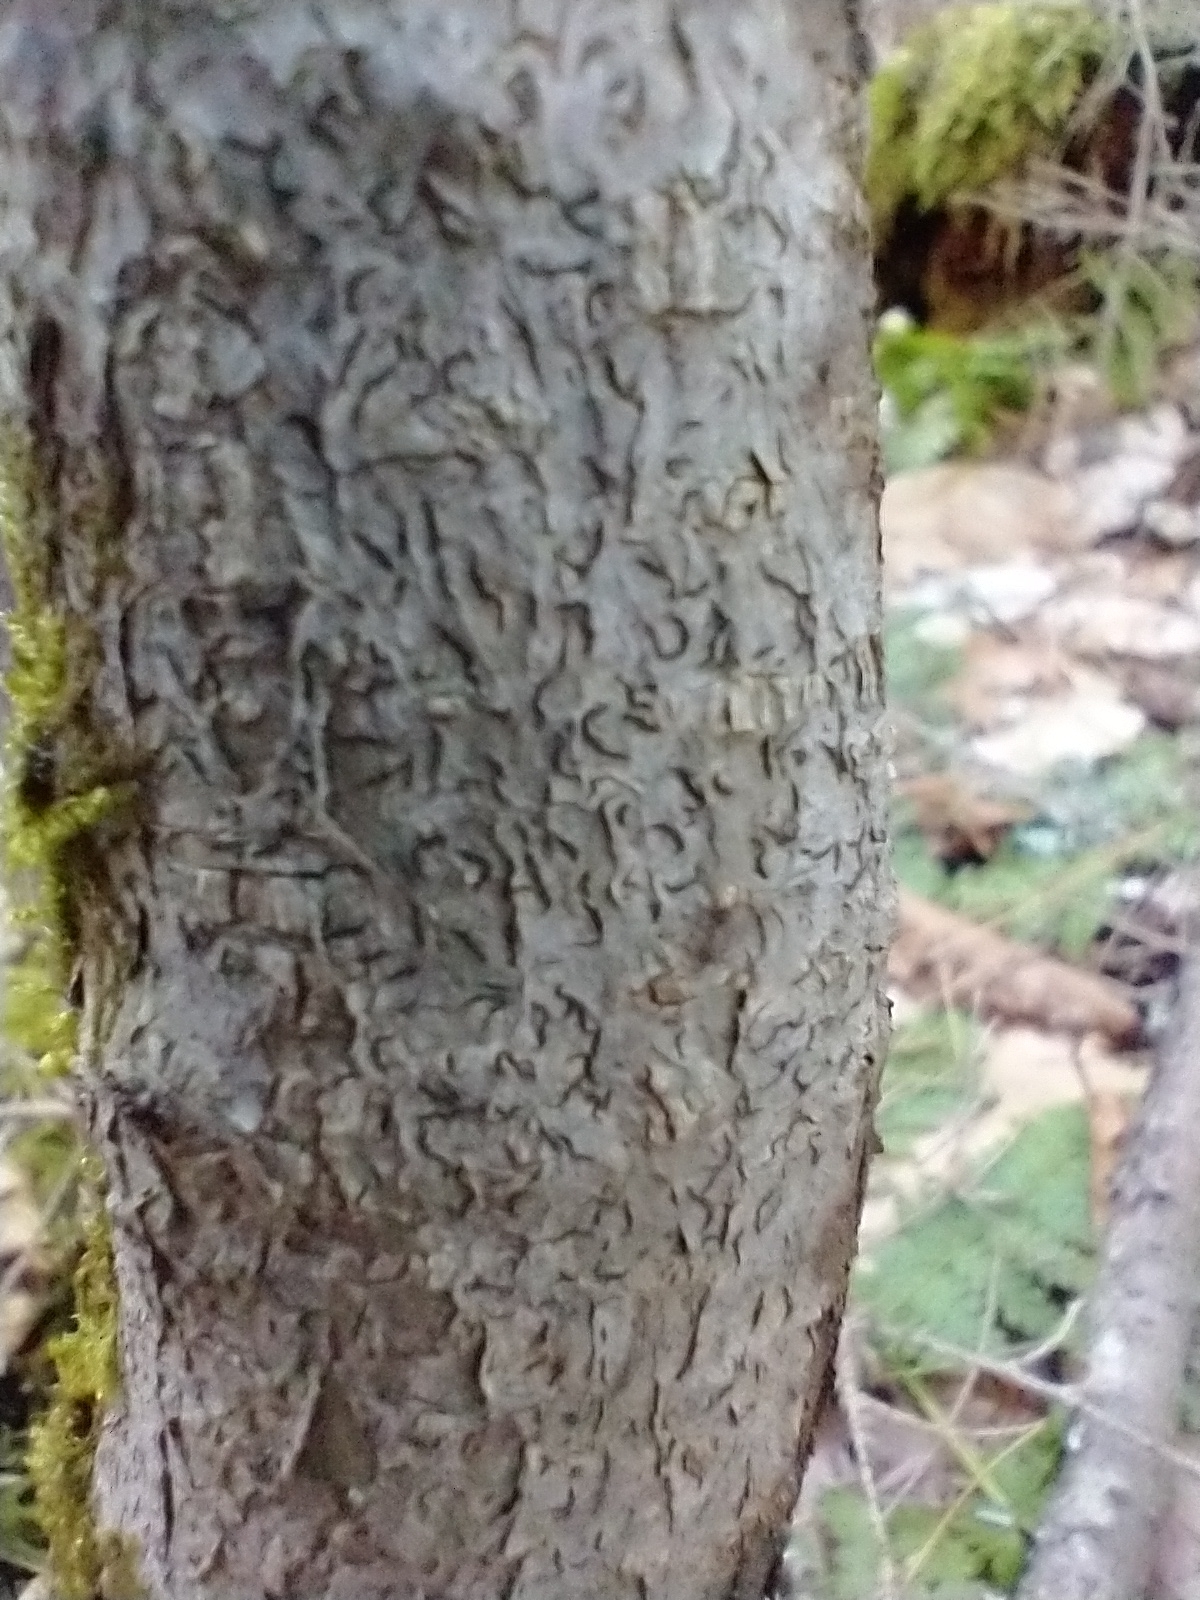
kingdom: Fungi
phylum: Ascomycota
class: Lecanoromycetes
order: Ostropales
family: Graphidaceae
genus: Graphis
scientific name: Graphis scripta
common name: Script lichen
